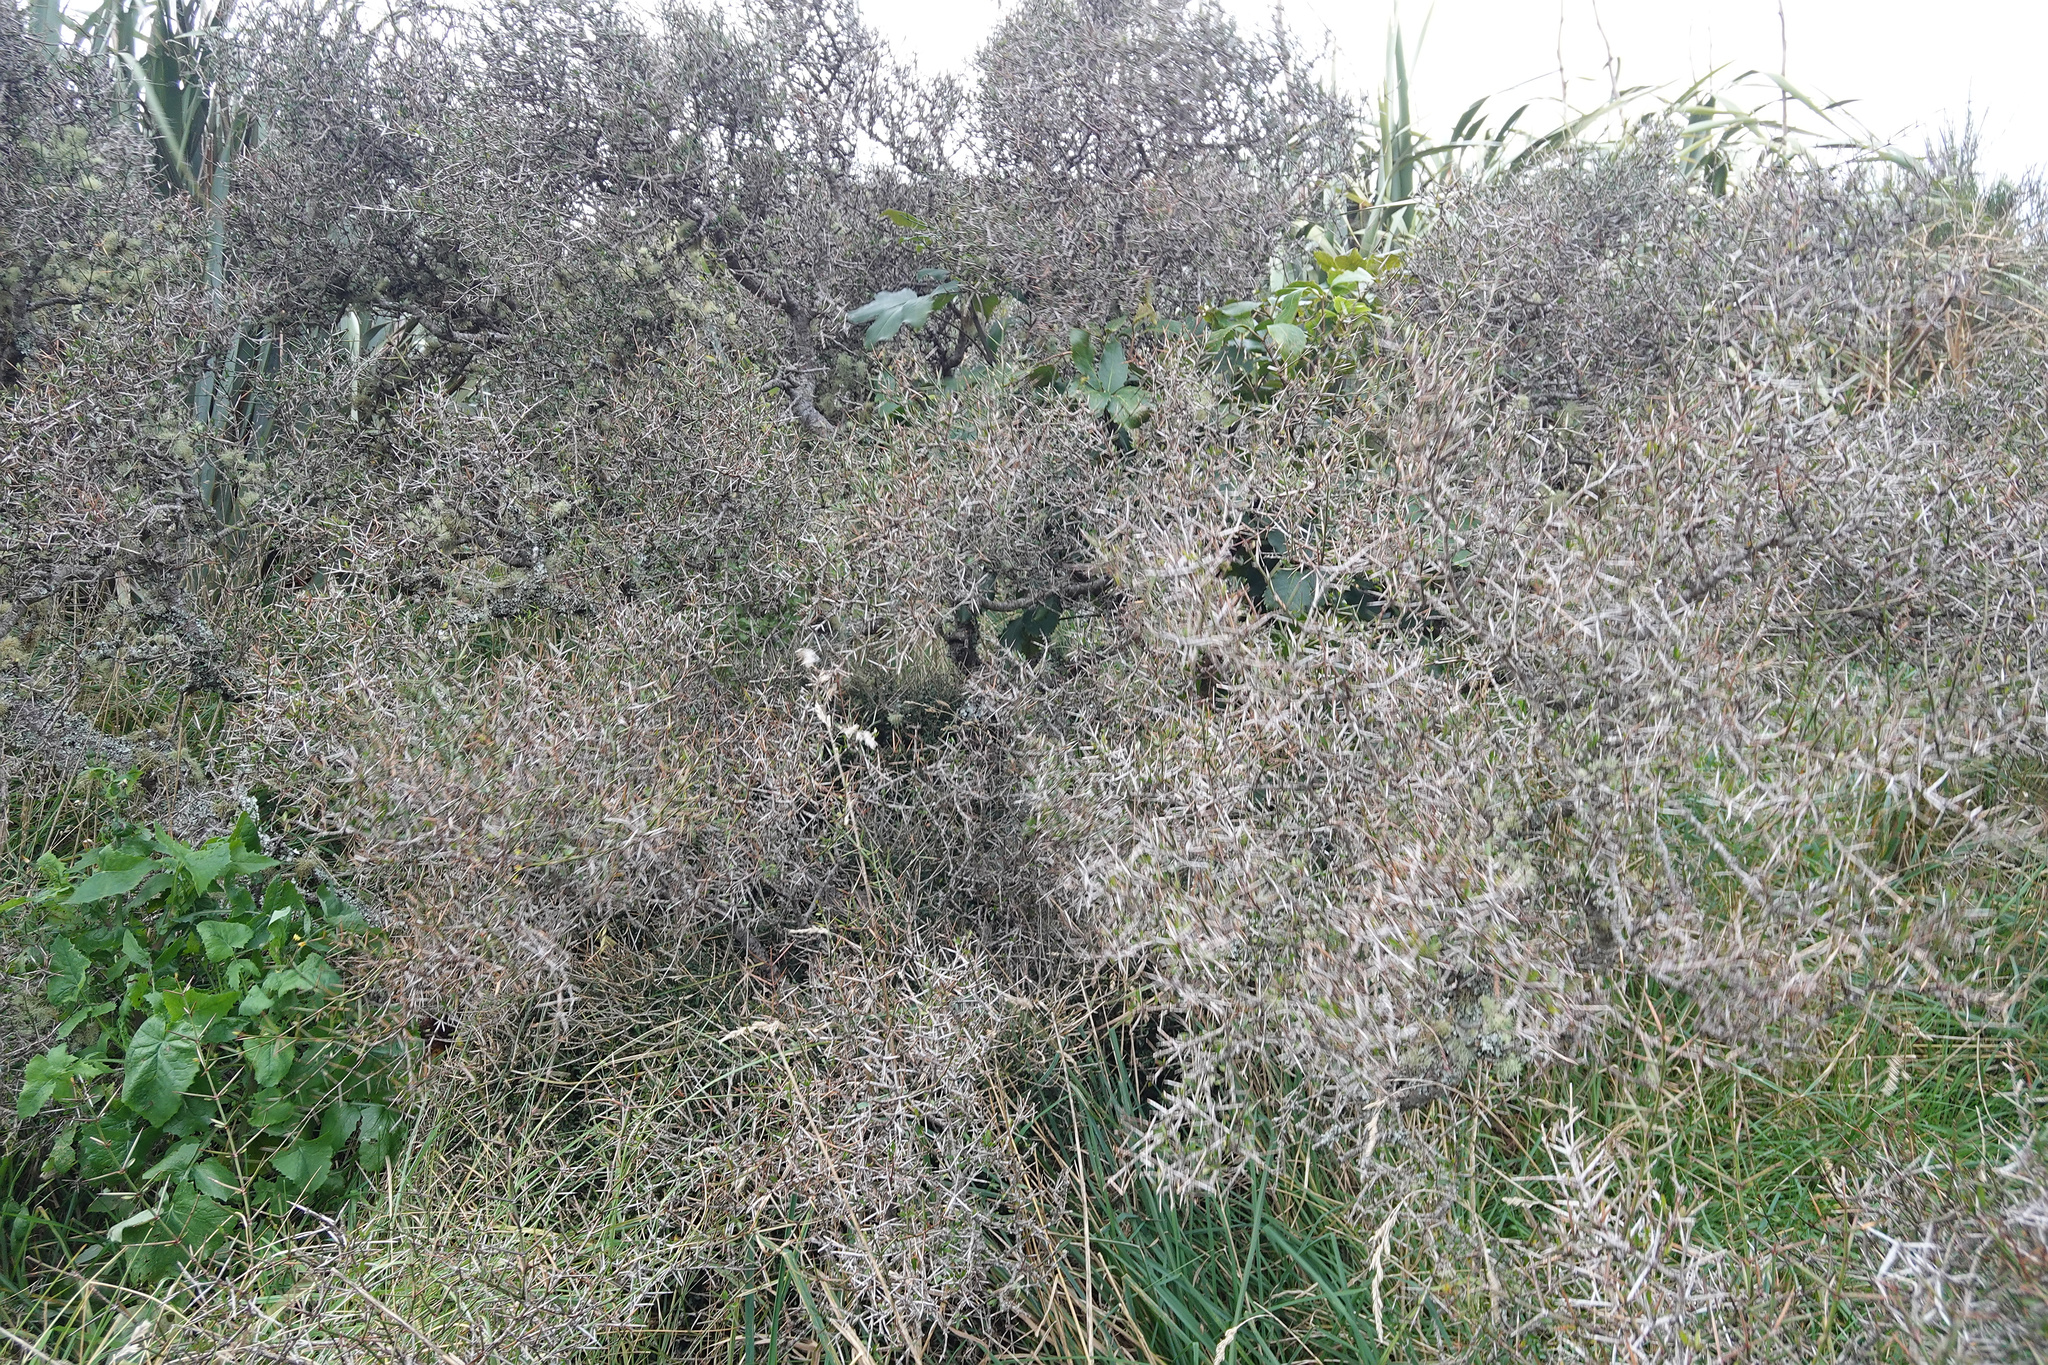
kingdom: Plantae
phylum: Tracheophyta
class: Magnoliopsida
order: Rosales
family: Rhamnaceae
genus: Discaria
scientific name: Discaria toumatou
